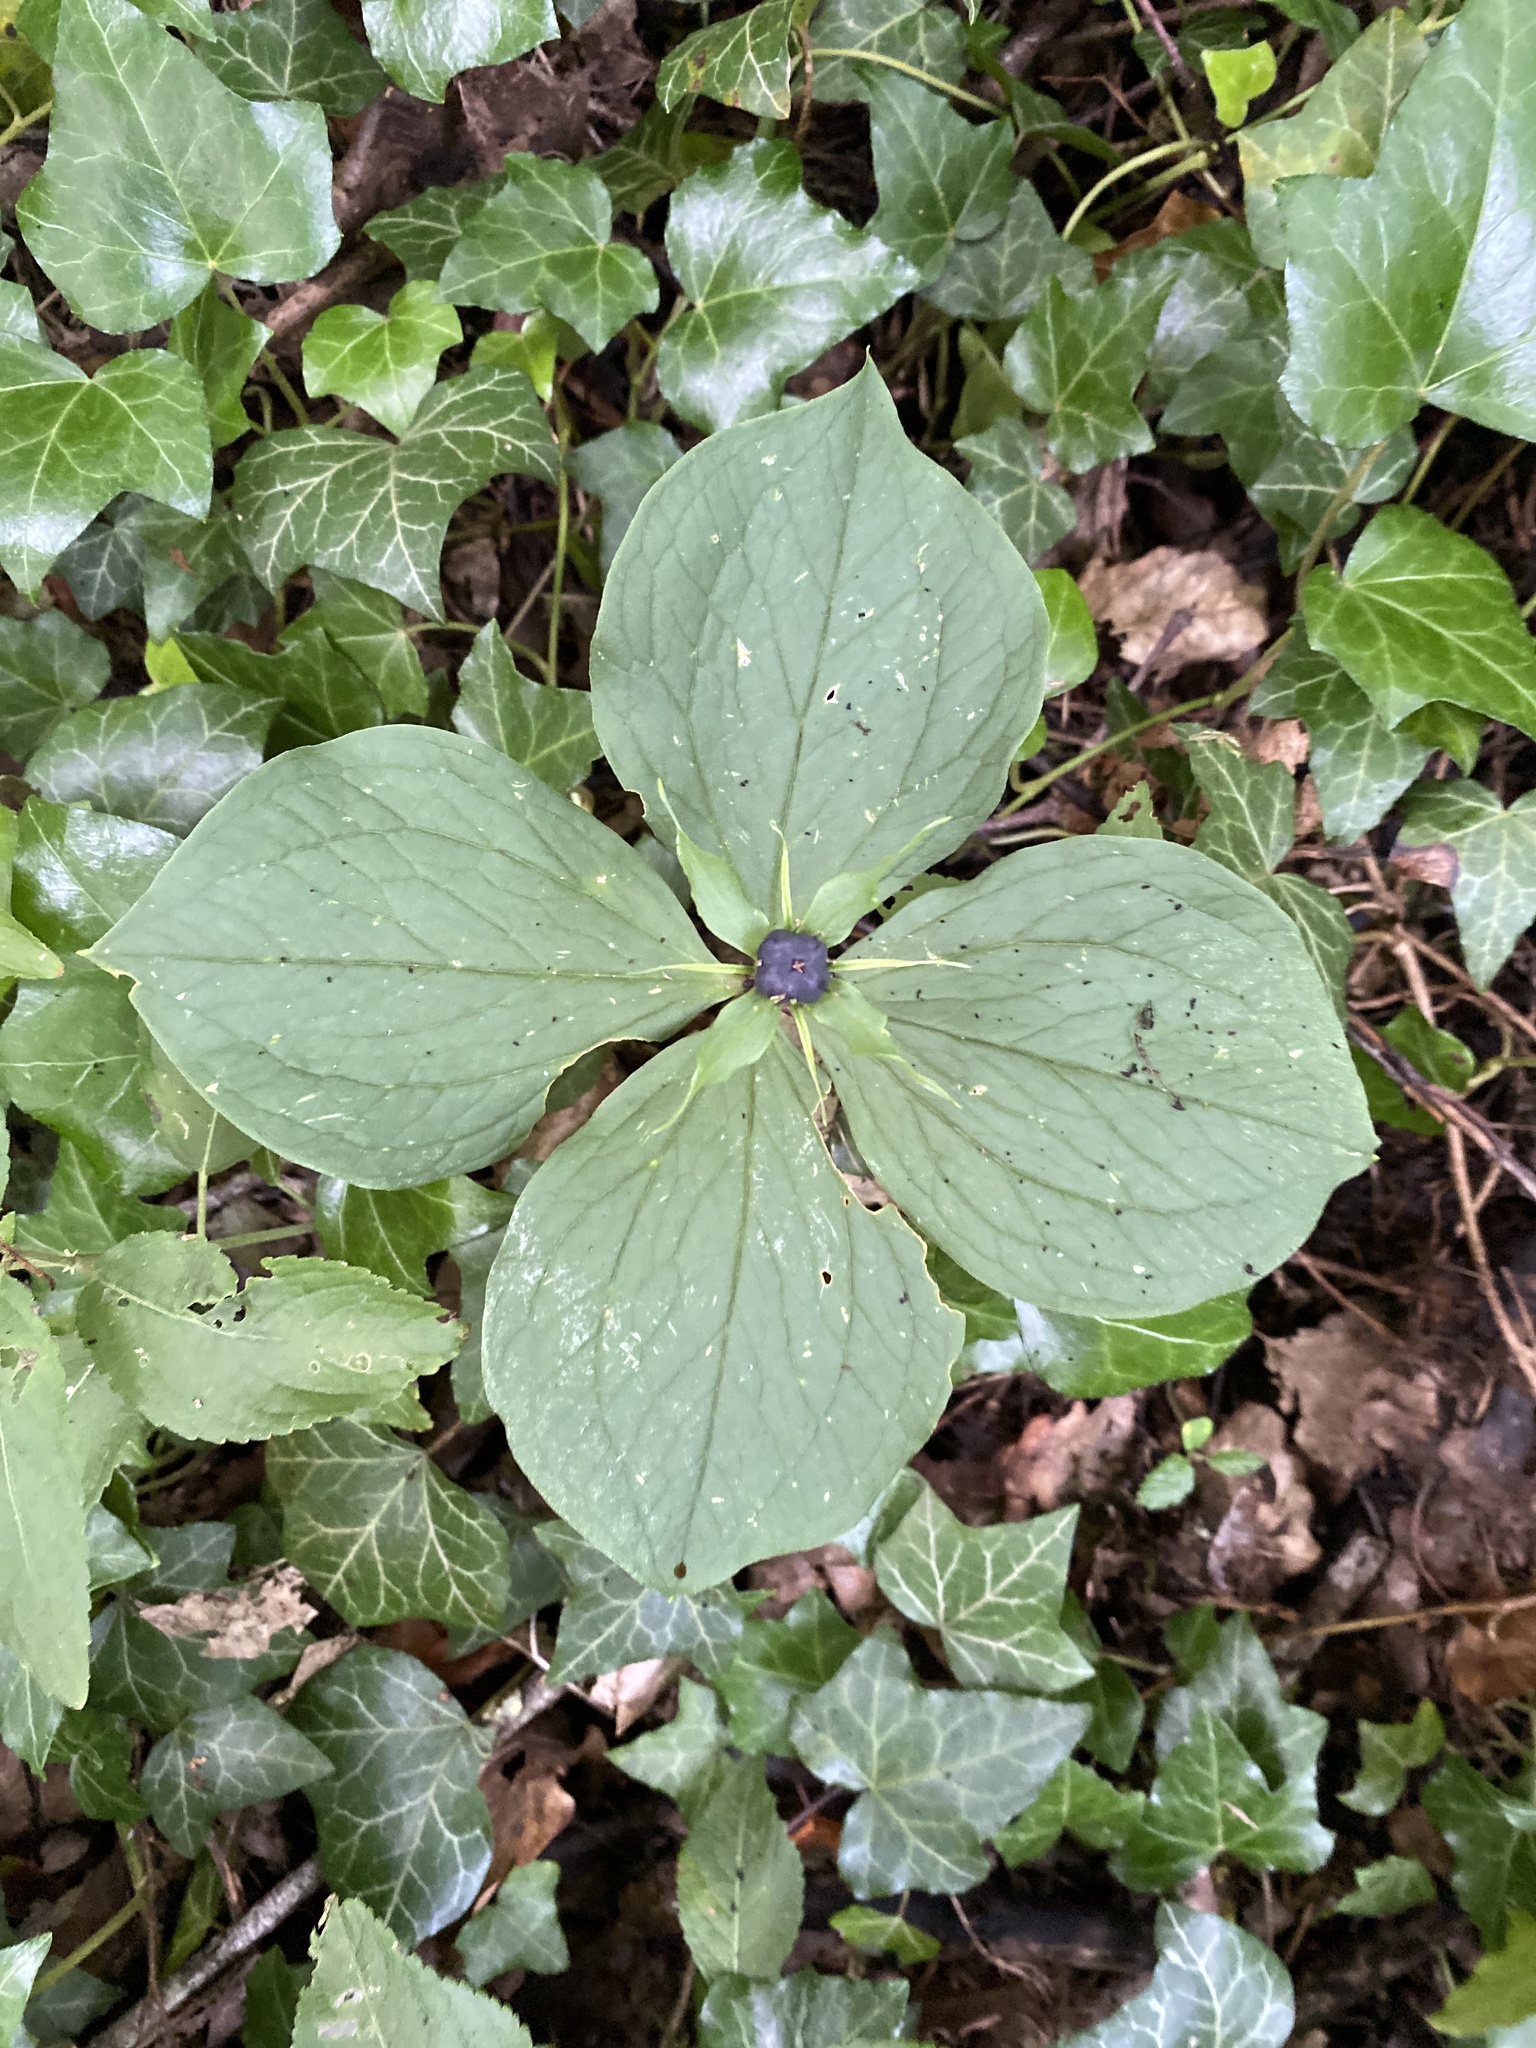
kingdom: Plantae
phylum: Tracheophyta
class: Liliopsida
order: Liliales
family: Melanthiaceae
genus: Paris
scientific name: Paris quadrifolia
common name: Herb-paris
